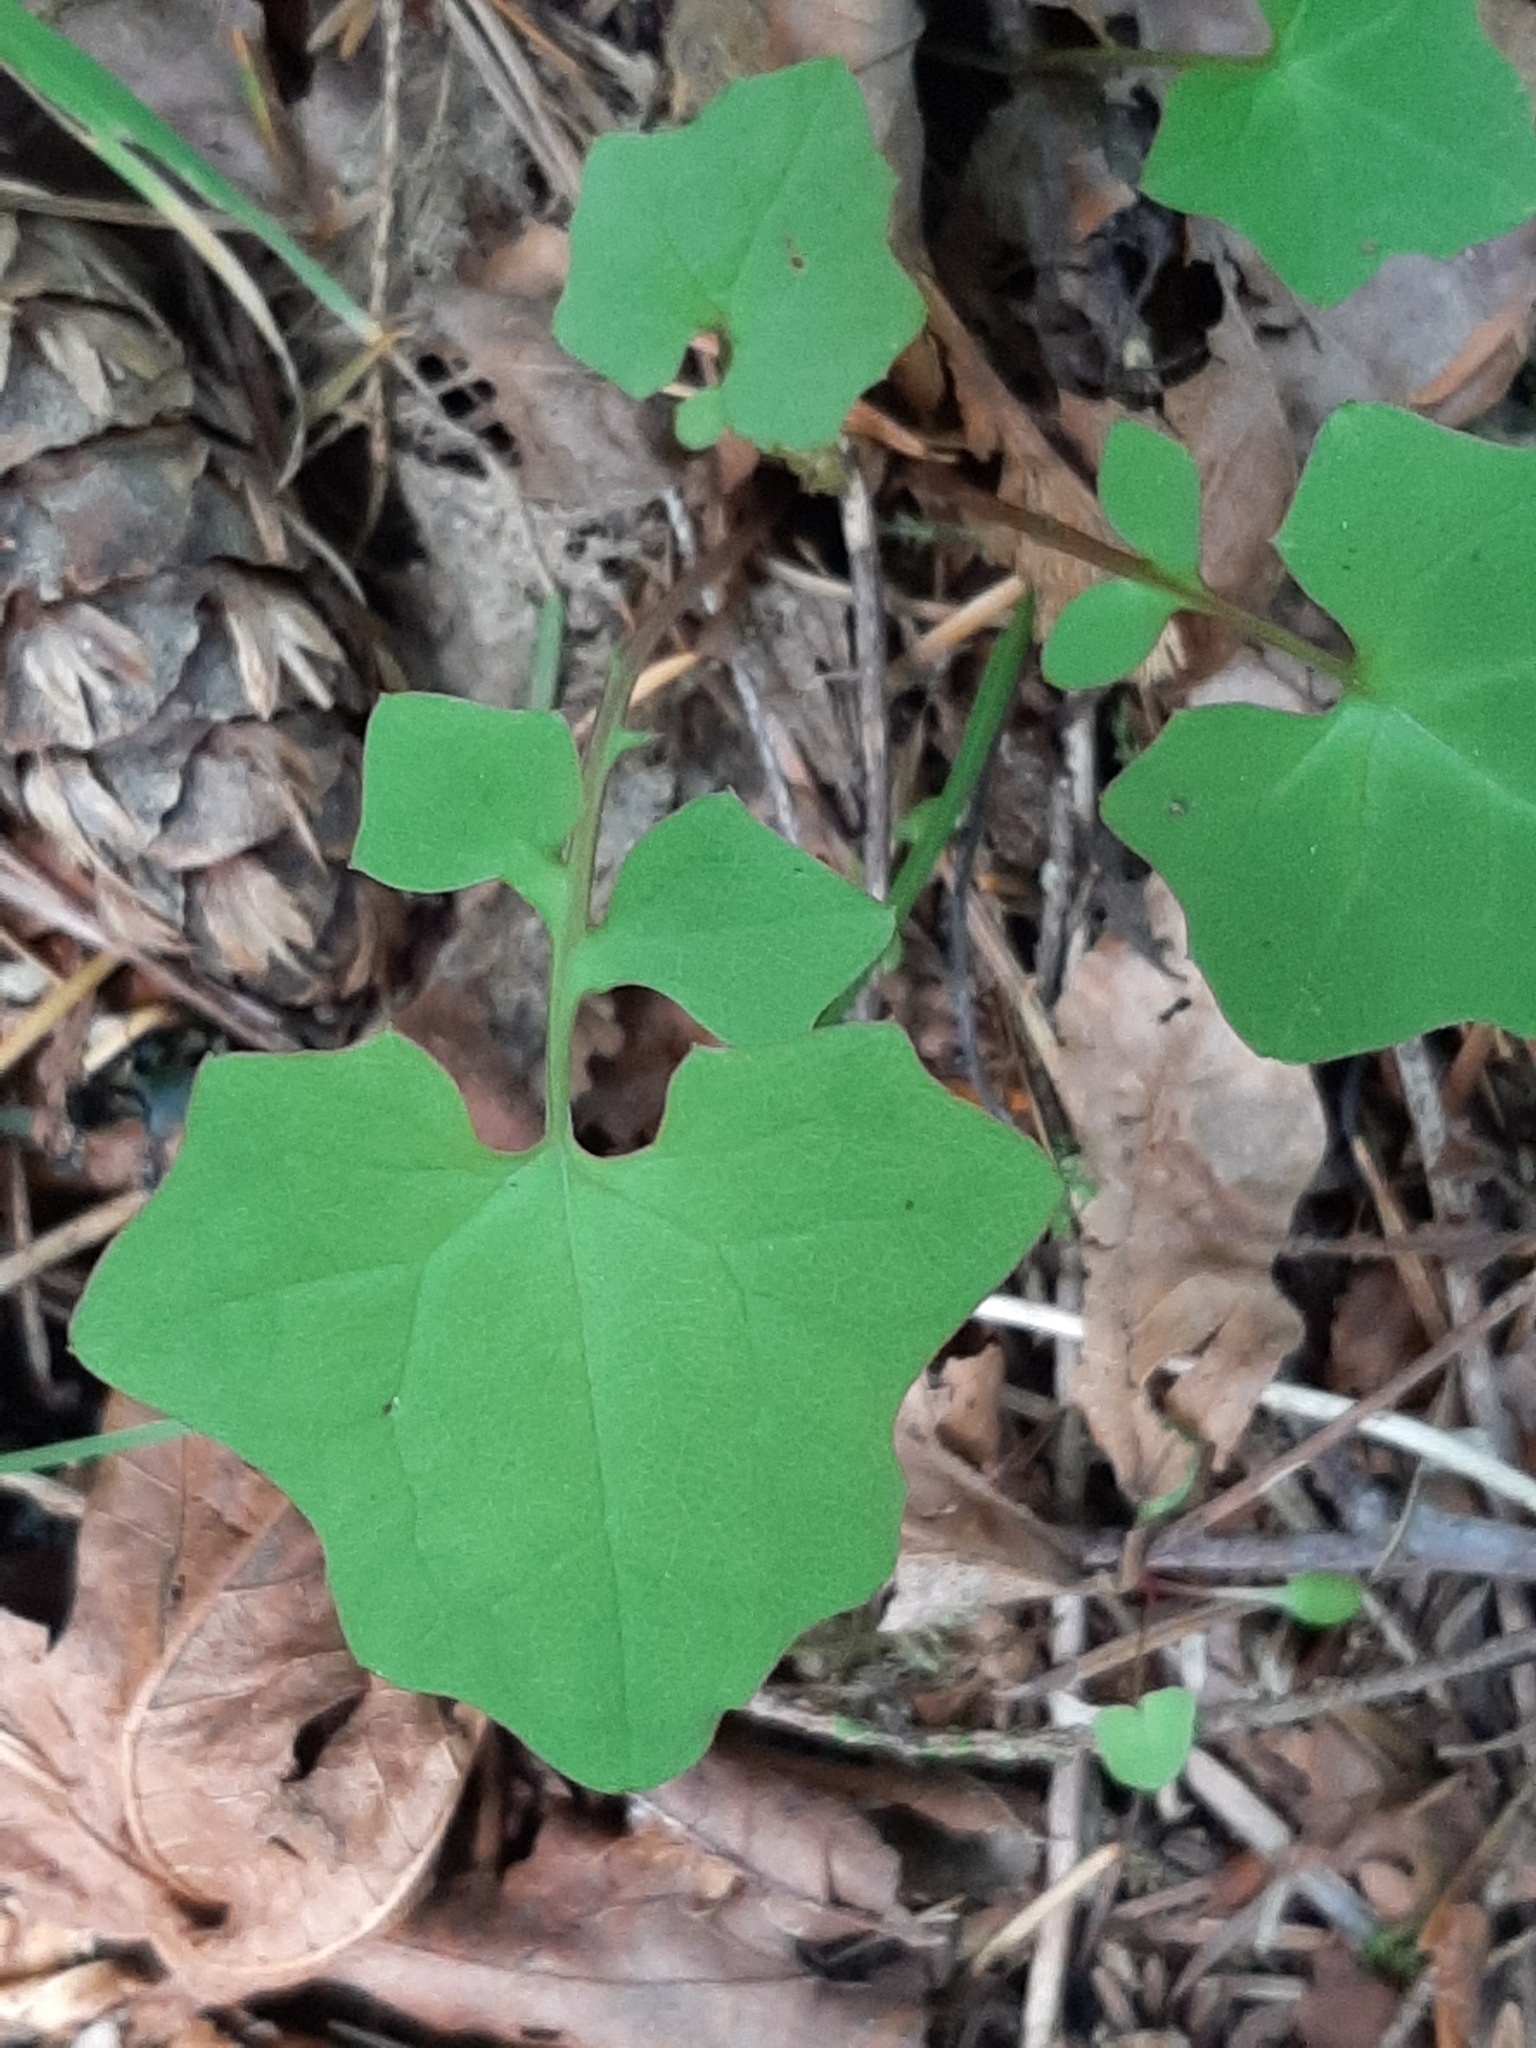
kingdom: Plantae
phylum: Tracheophyta
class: Magnoliopsida
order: Asterales
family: Asteraceae
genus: Mycelis
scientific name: Mycelis muralis
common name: Wall lettuce
